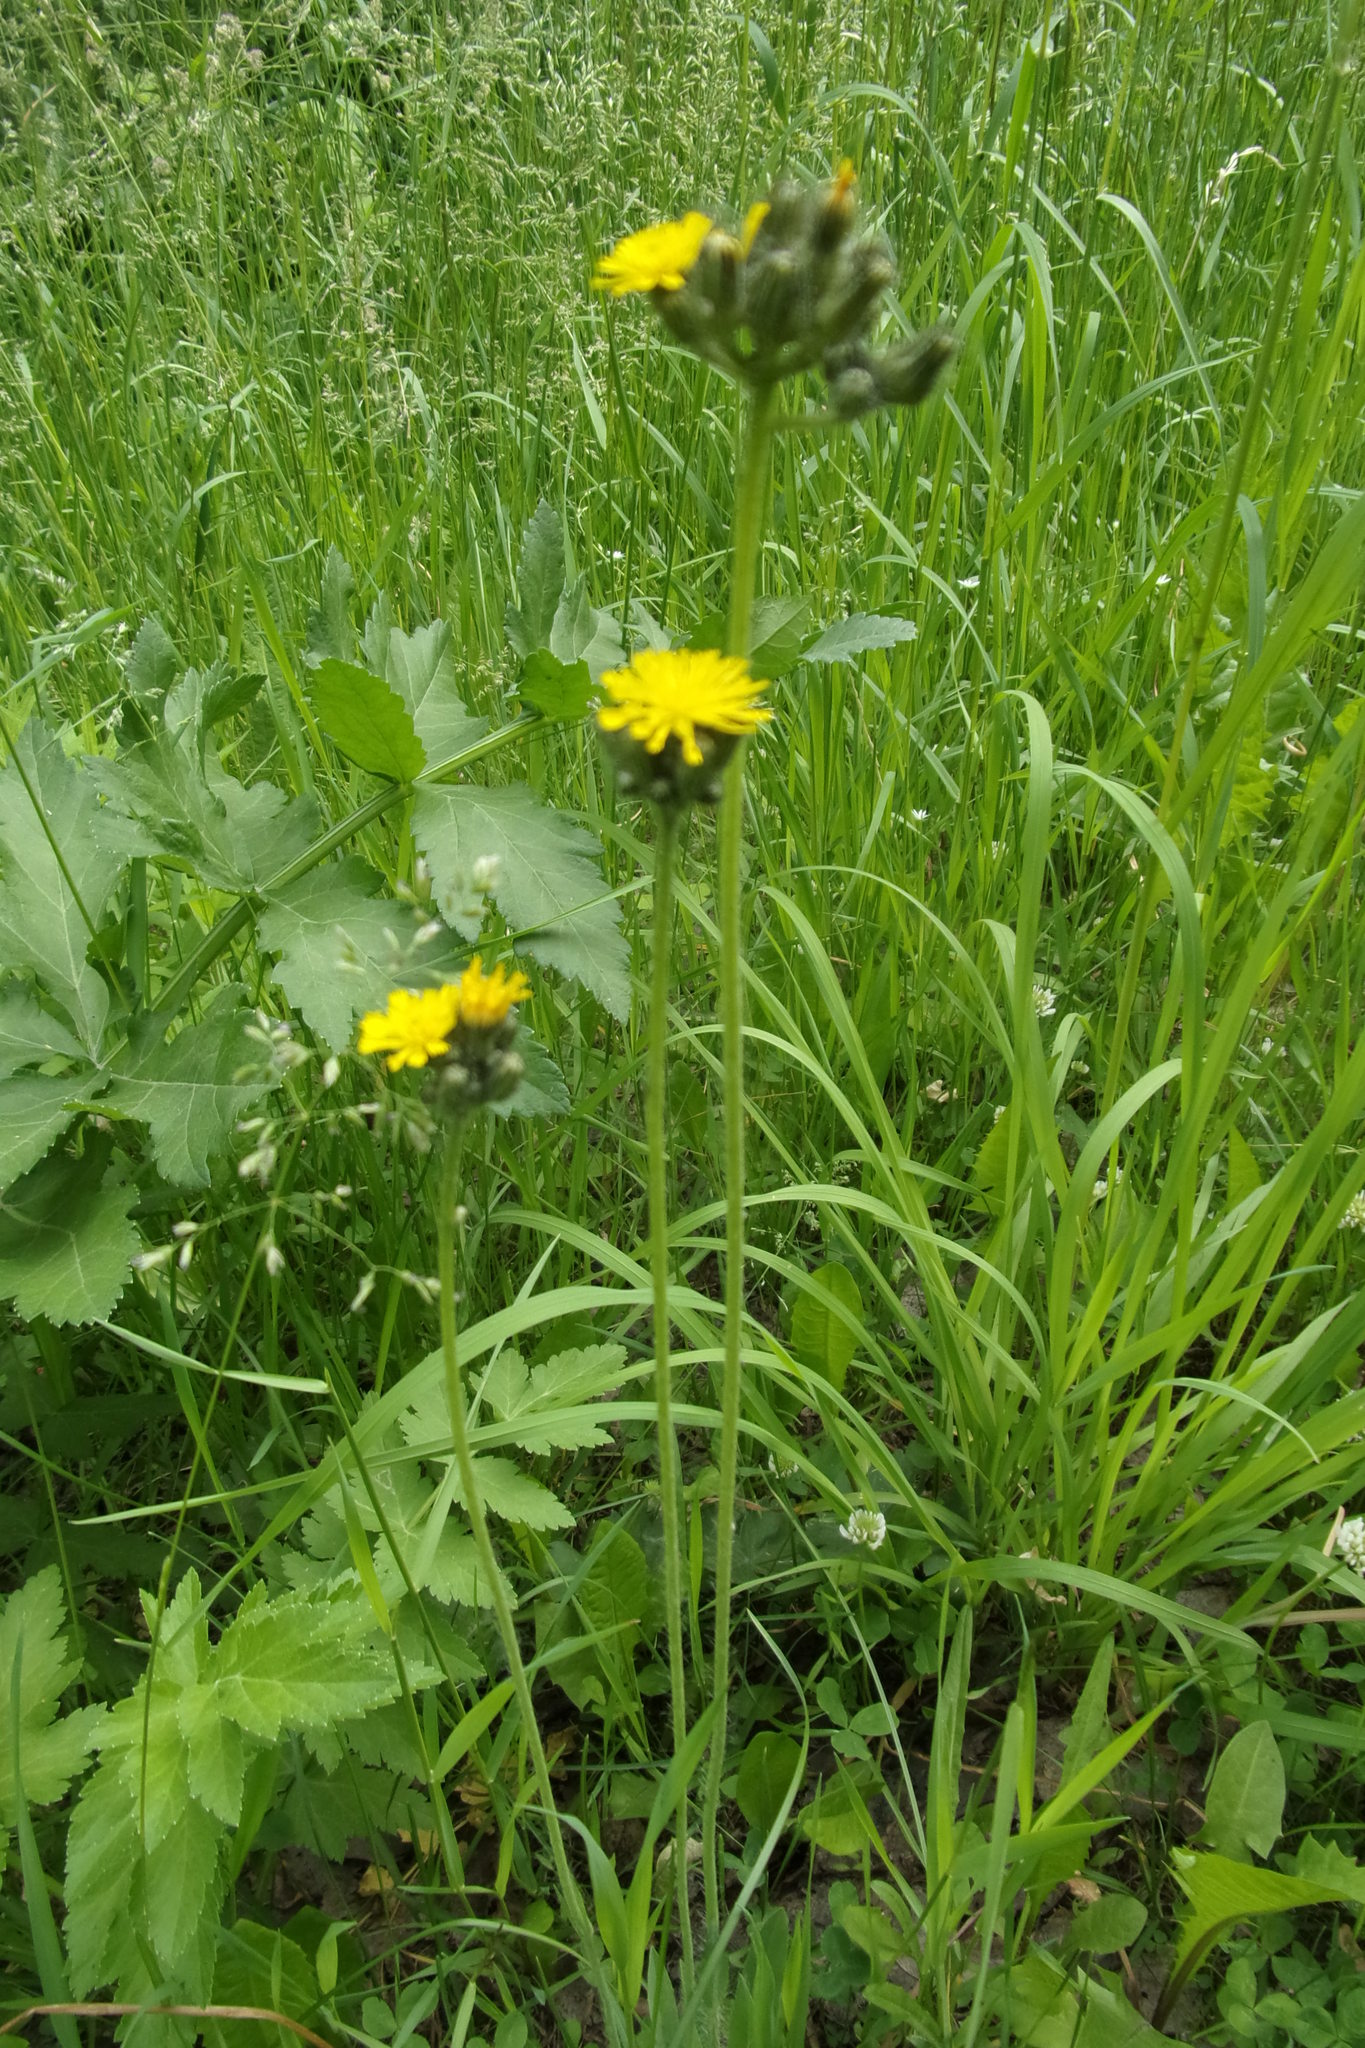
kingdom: Plantae
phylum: Tracheophyta
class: Magnoliopsida
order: Asterales
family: Asteraceae
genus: Pilosella
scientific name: Pilosella
